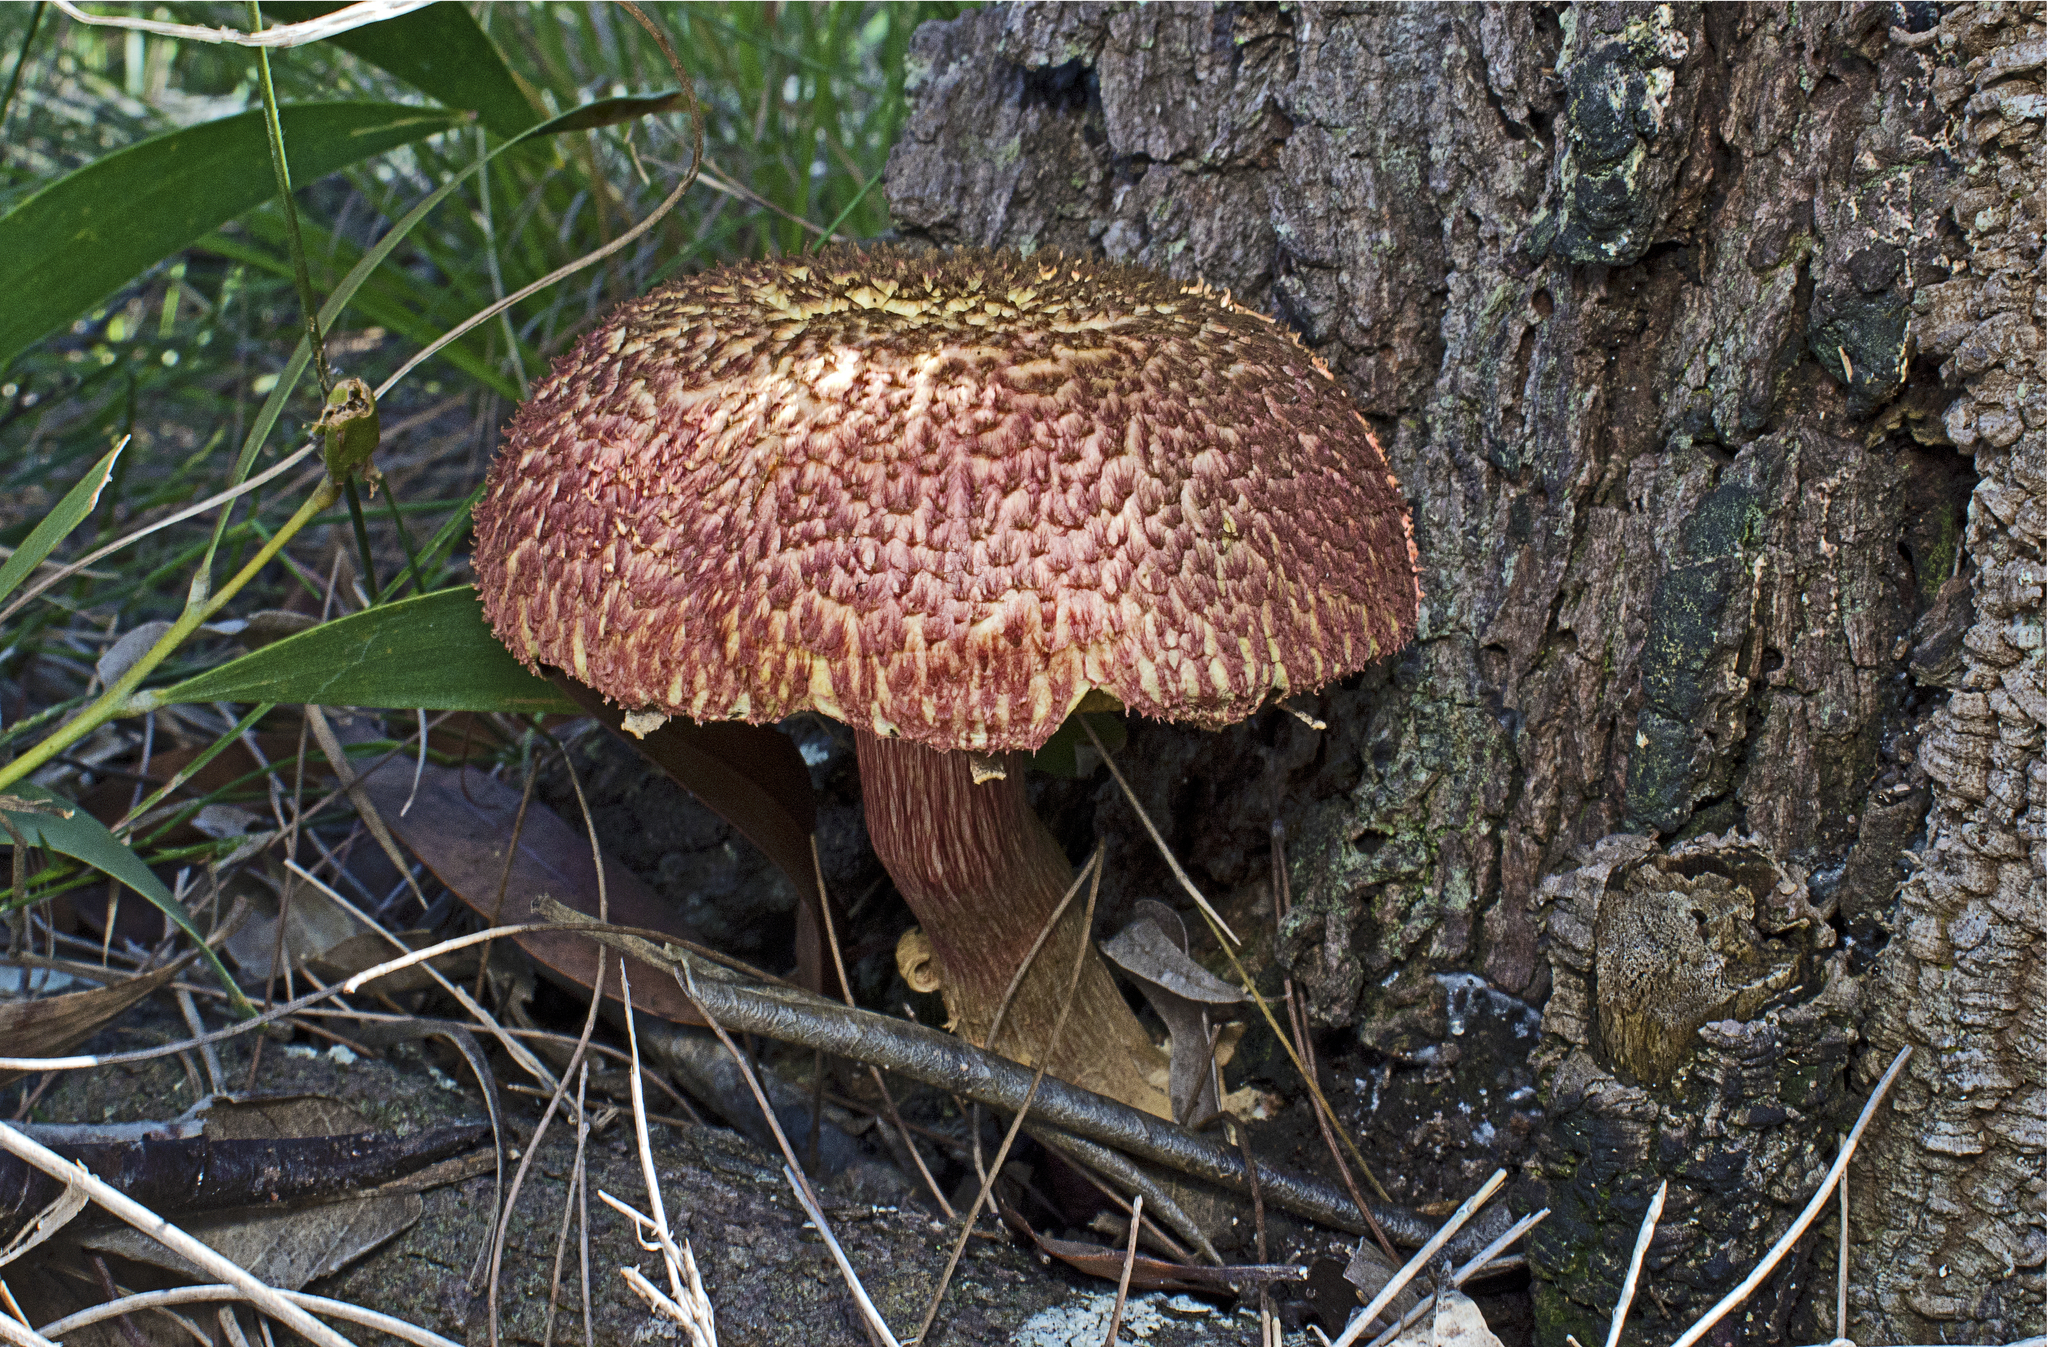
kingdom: Fungi
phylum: Basidiomycota
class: Agaricomycetes
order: Boletales
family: Boletaceae
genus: Boletellus
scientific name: Boletellus emodensis
